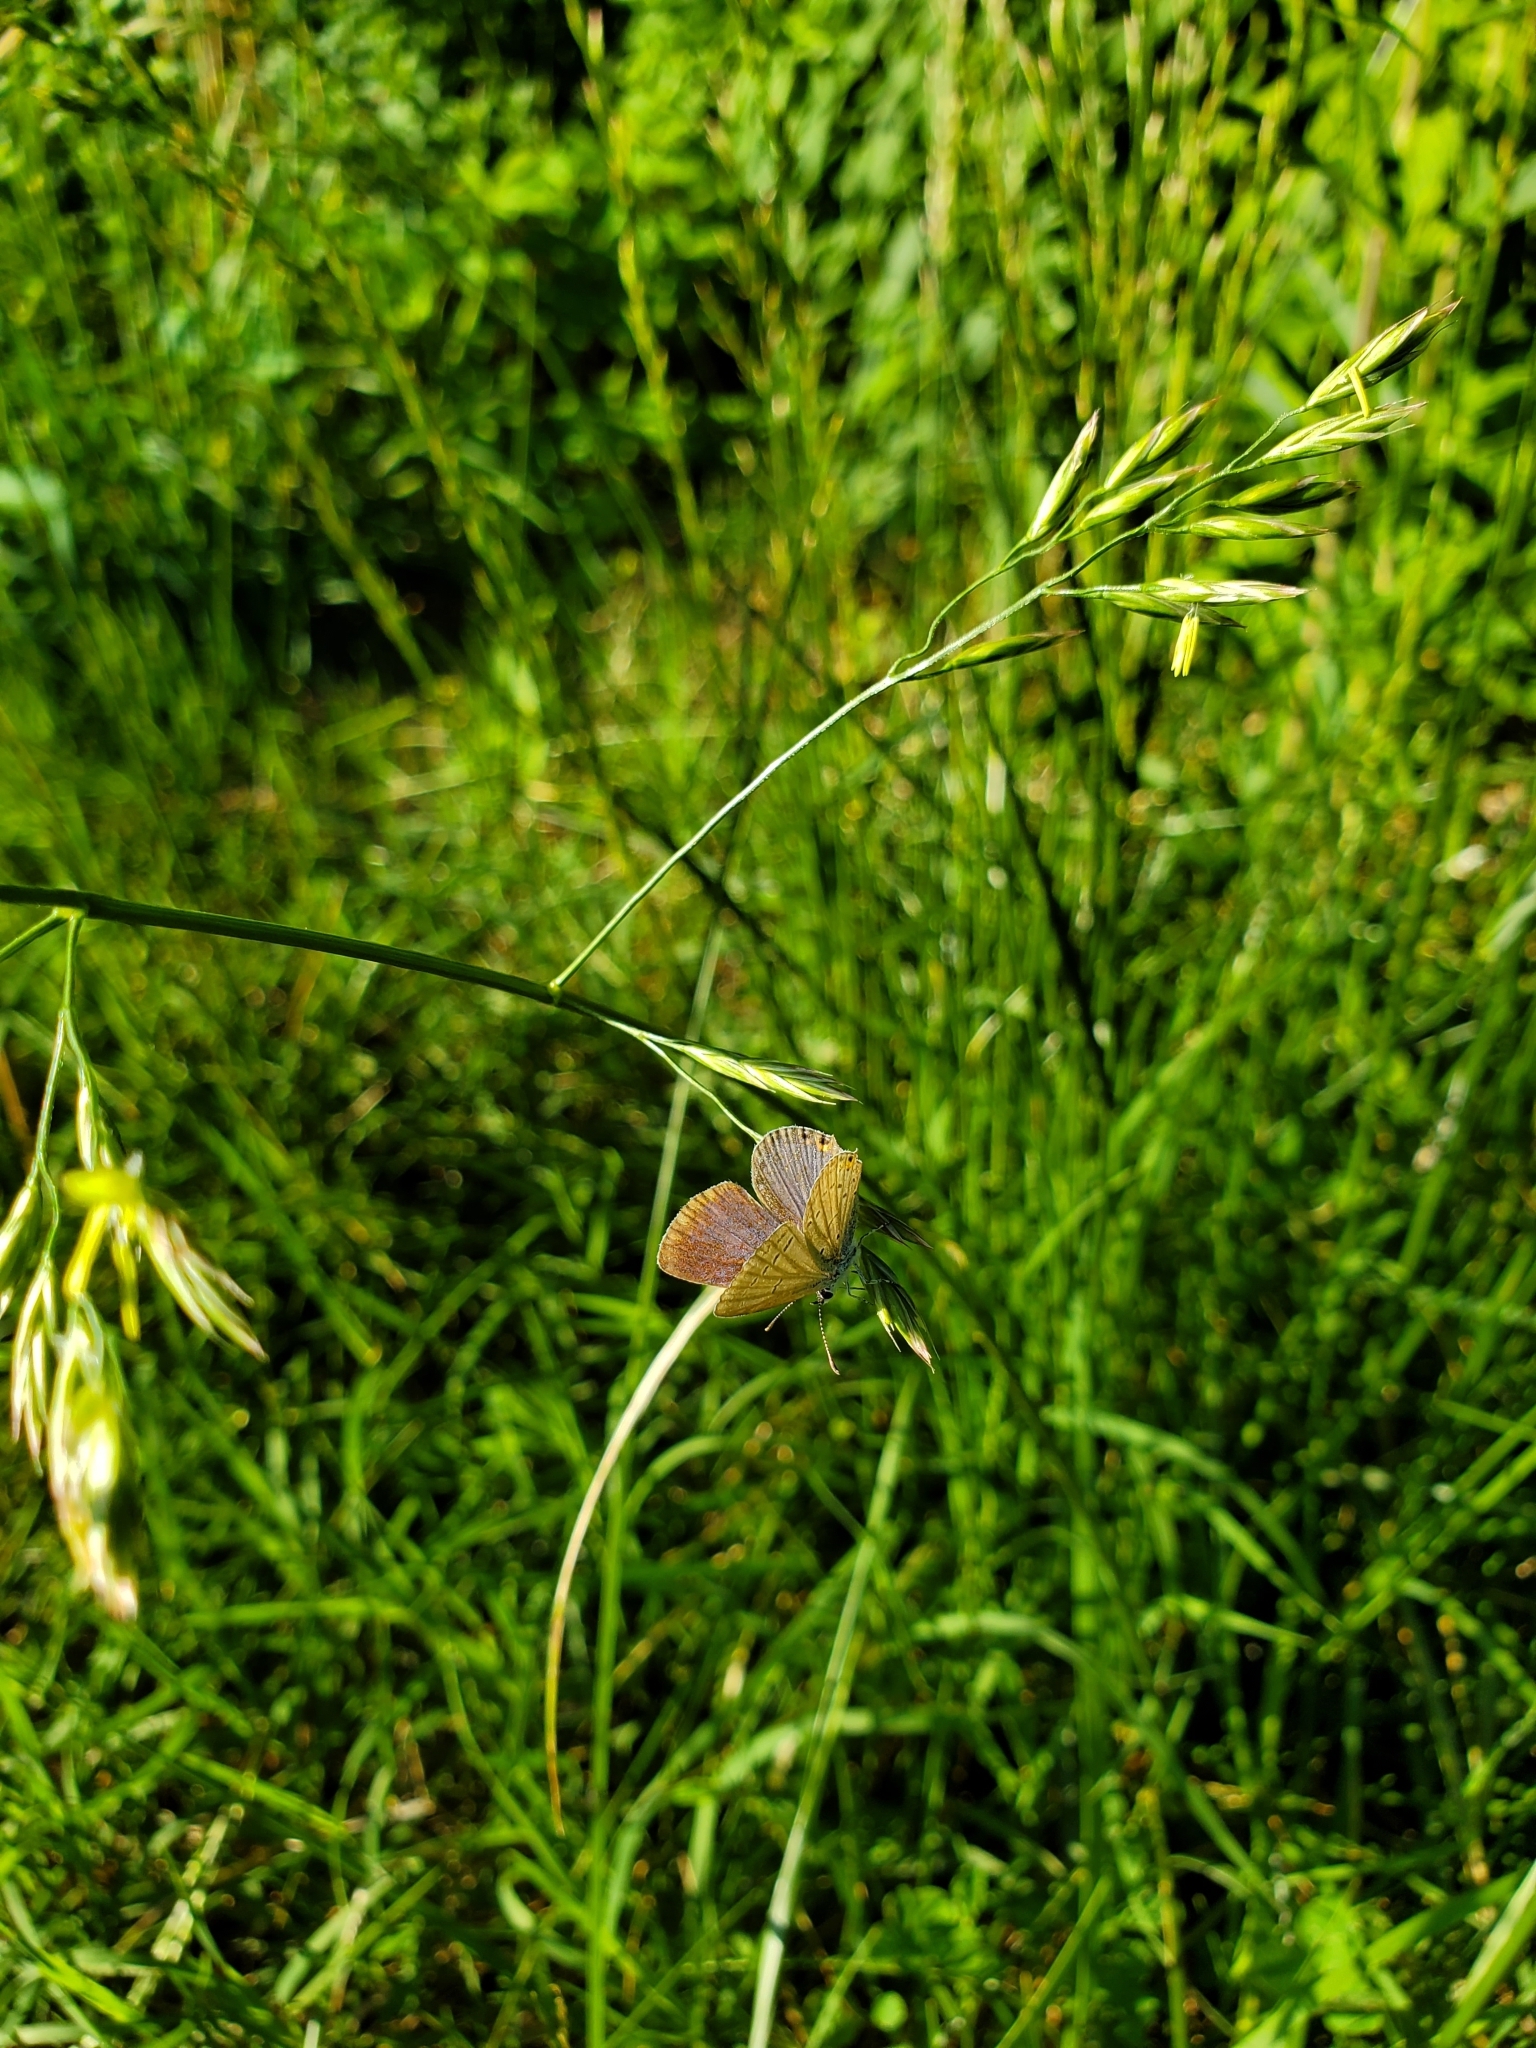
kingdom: Animalia
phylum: Arthropoda
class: Insecta
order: Lepidoptera
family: Lycaenidae
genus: Elkalyce
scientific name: Elkalyce comyntas
